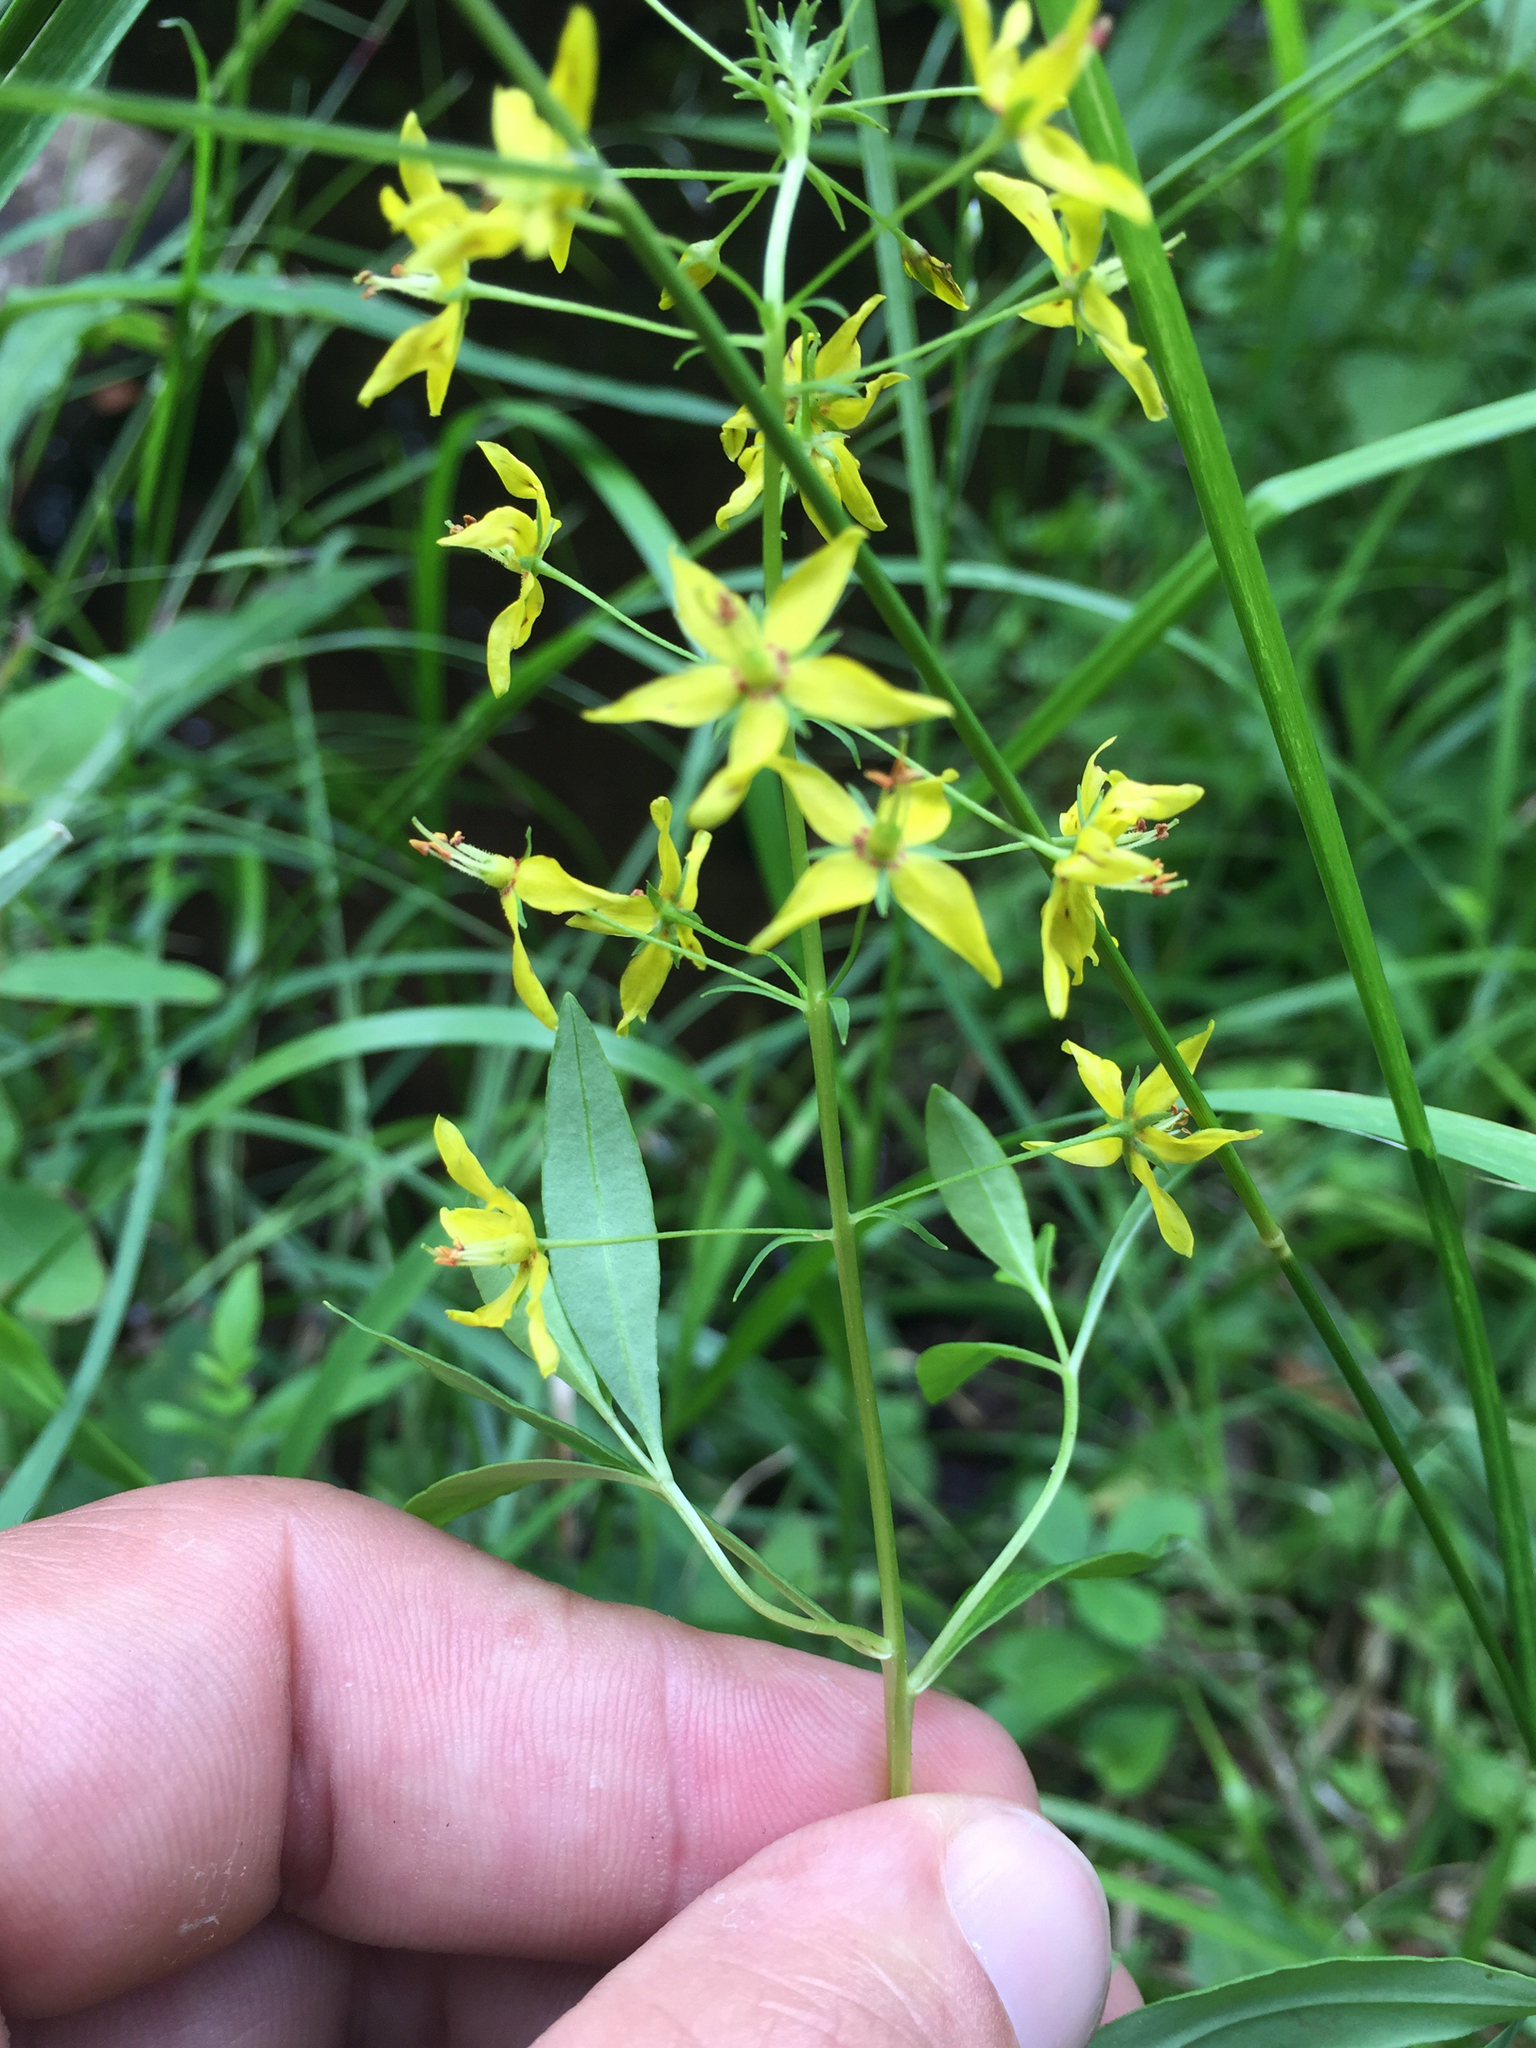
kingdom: Plantae
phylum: Tracheophyta
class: Magnoliopsida
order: Ericales
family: Primulaceae
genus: Lysimachia
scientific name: Lysimachia terrestris
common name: Lake loosestrife
